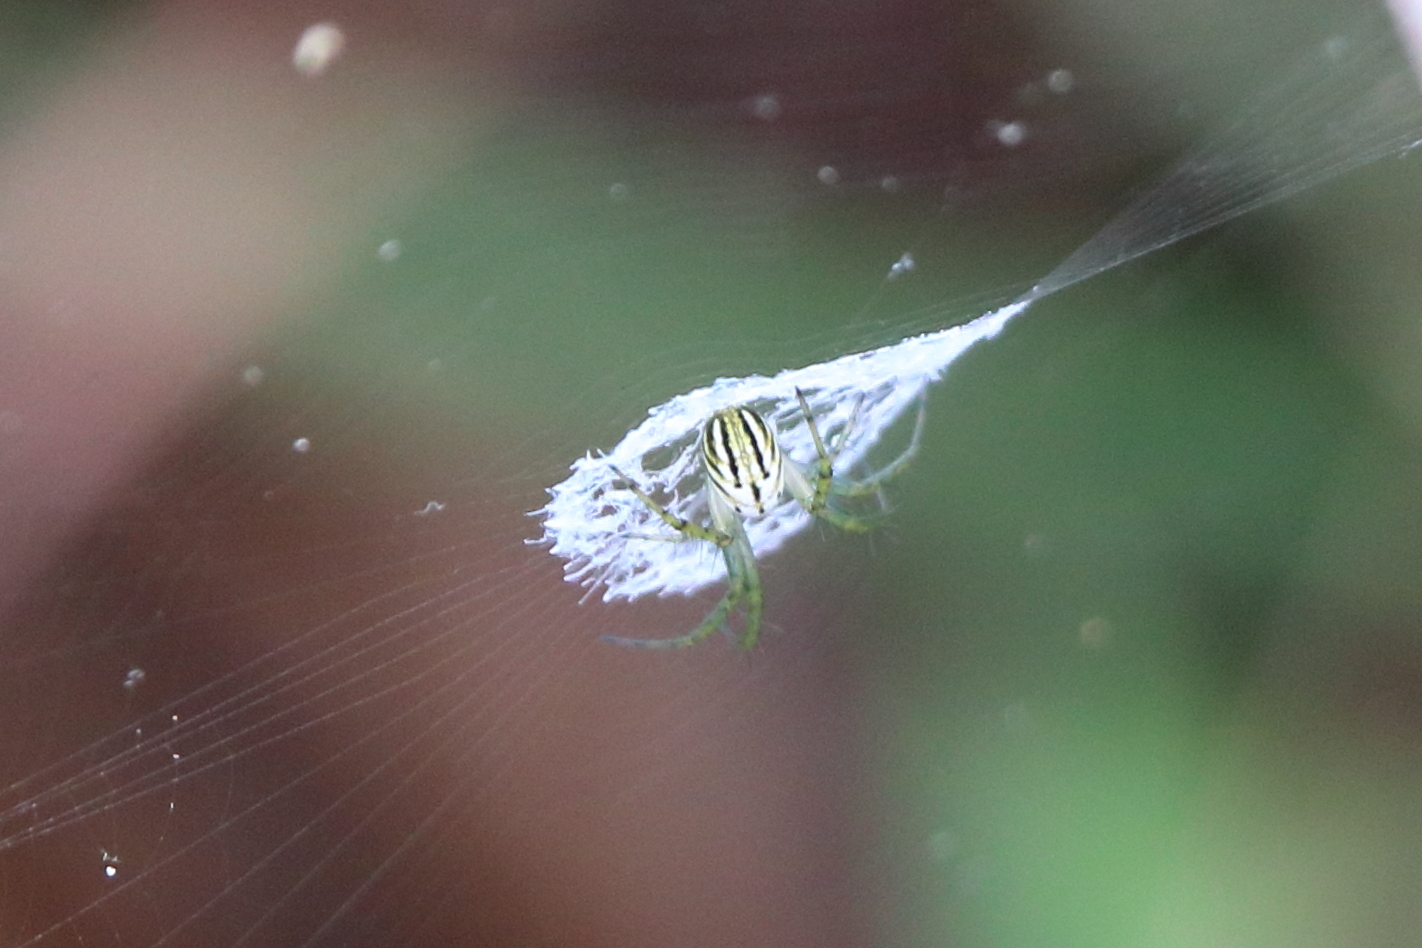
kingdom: Animalia
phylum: Arthropoda
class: Arachnida
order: Araneae
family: Araneidae
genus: Mangora
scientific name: Mangora gibberosa
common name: Lined orbweaver
